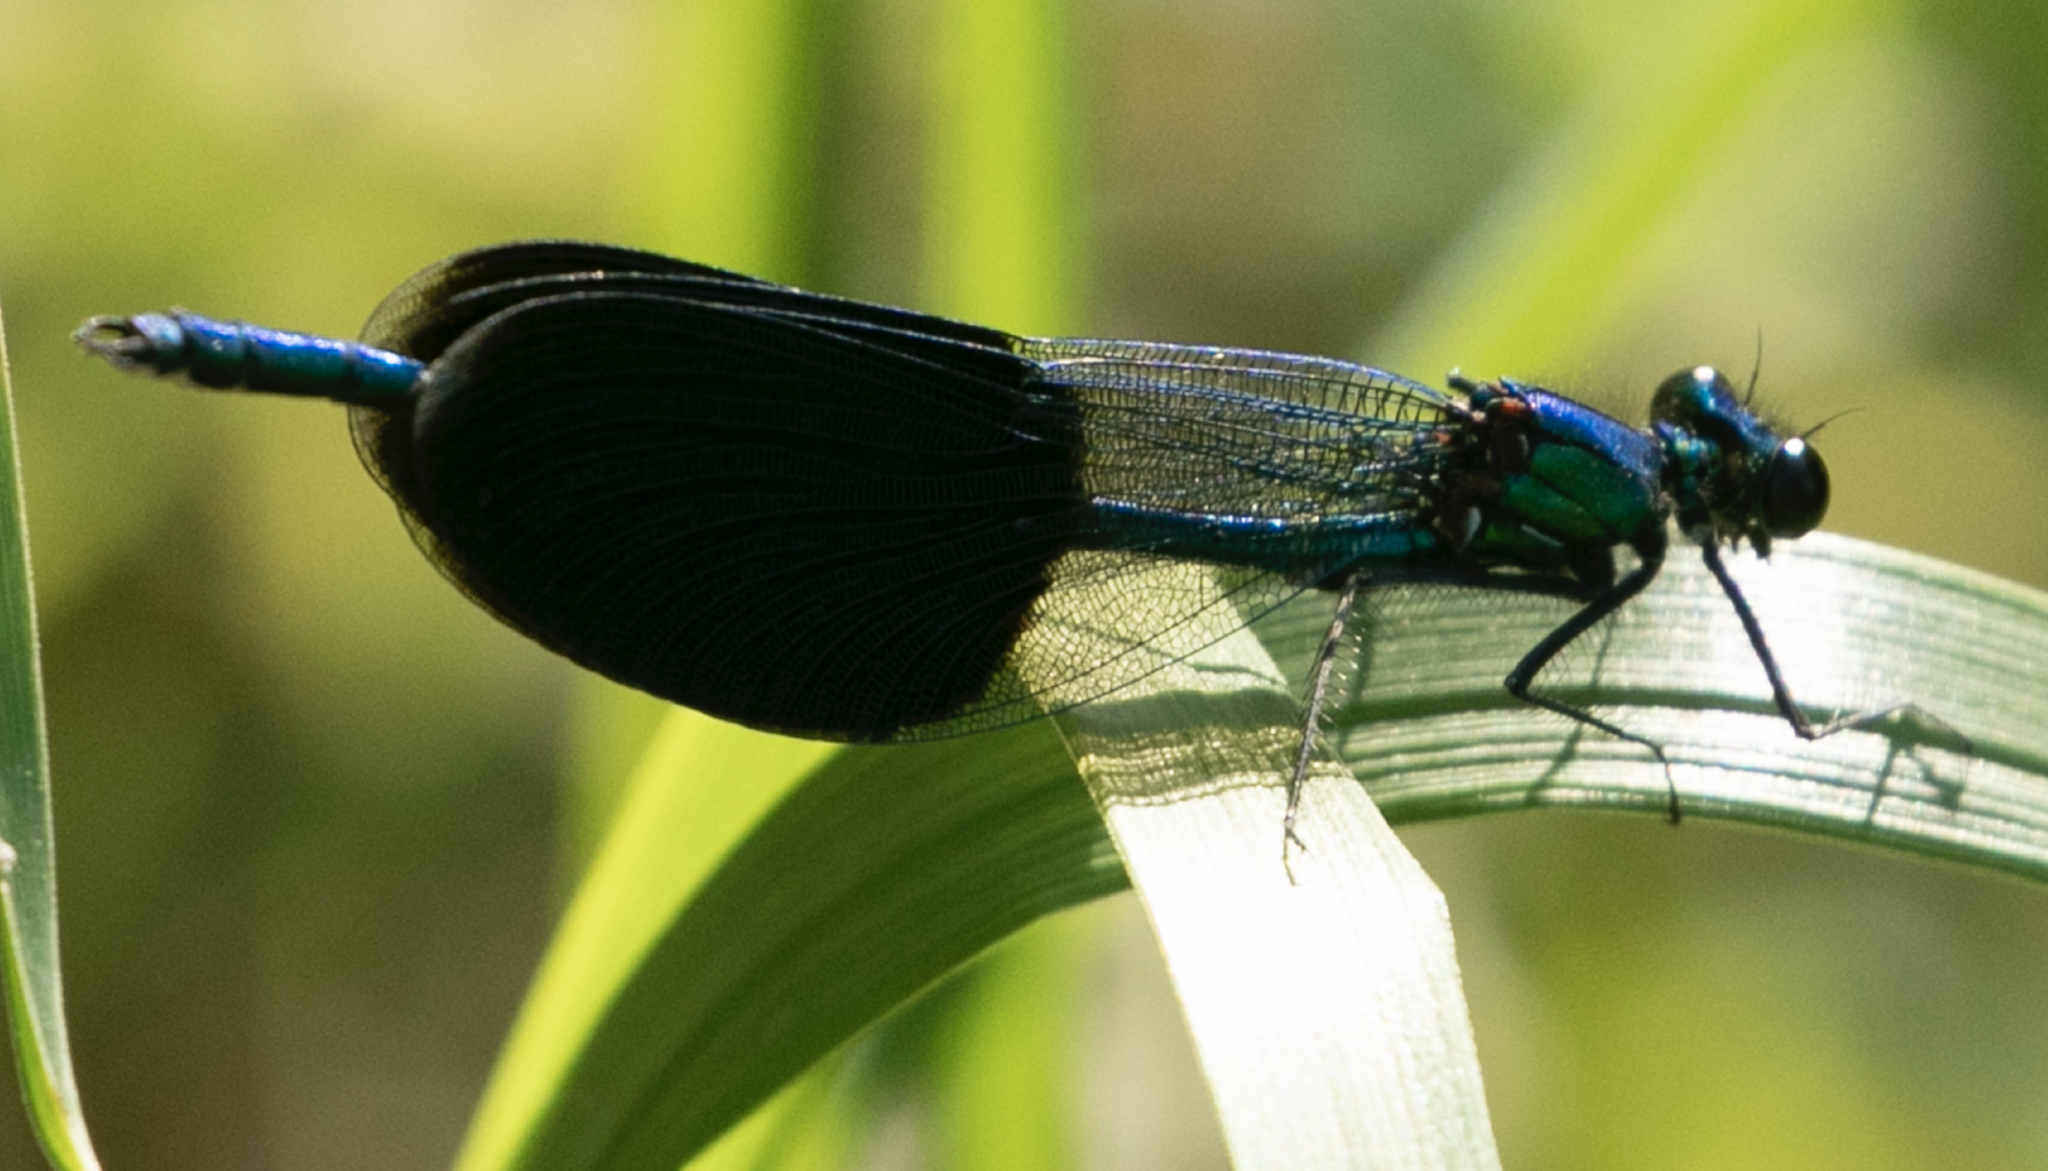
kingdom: Animalia
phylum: Arthropoda
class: Insecta
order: Odonata
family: Calopterygidae
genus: Calopteryx
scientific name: Calopteryx splendens
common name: Banded demoiselle
